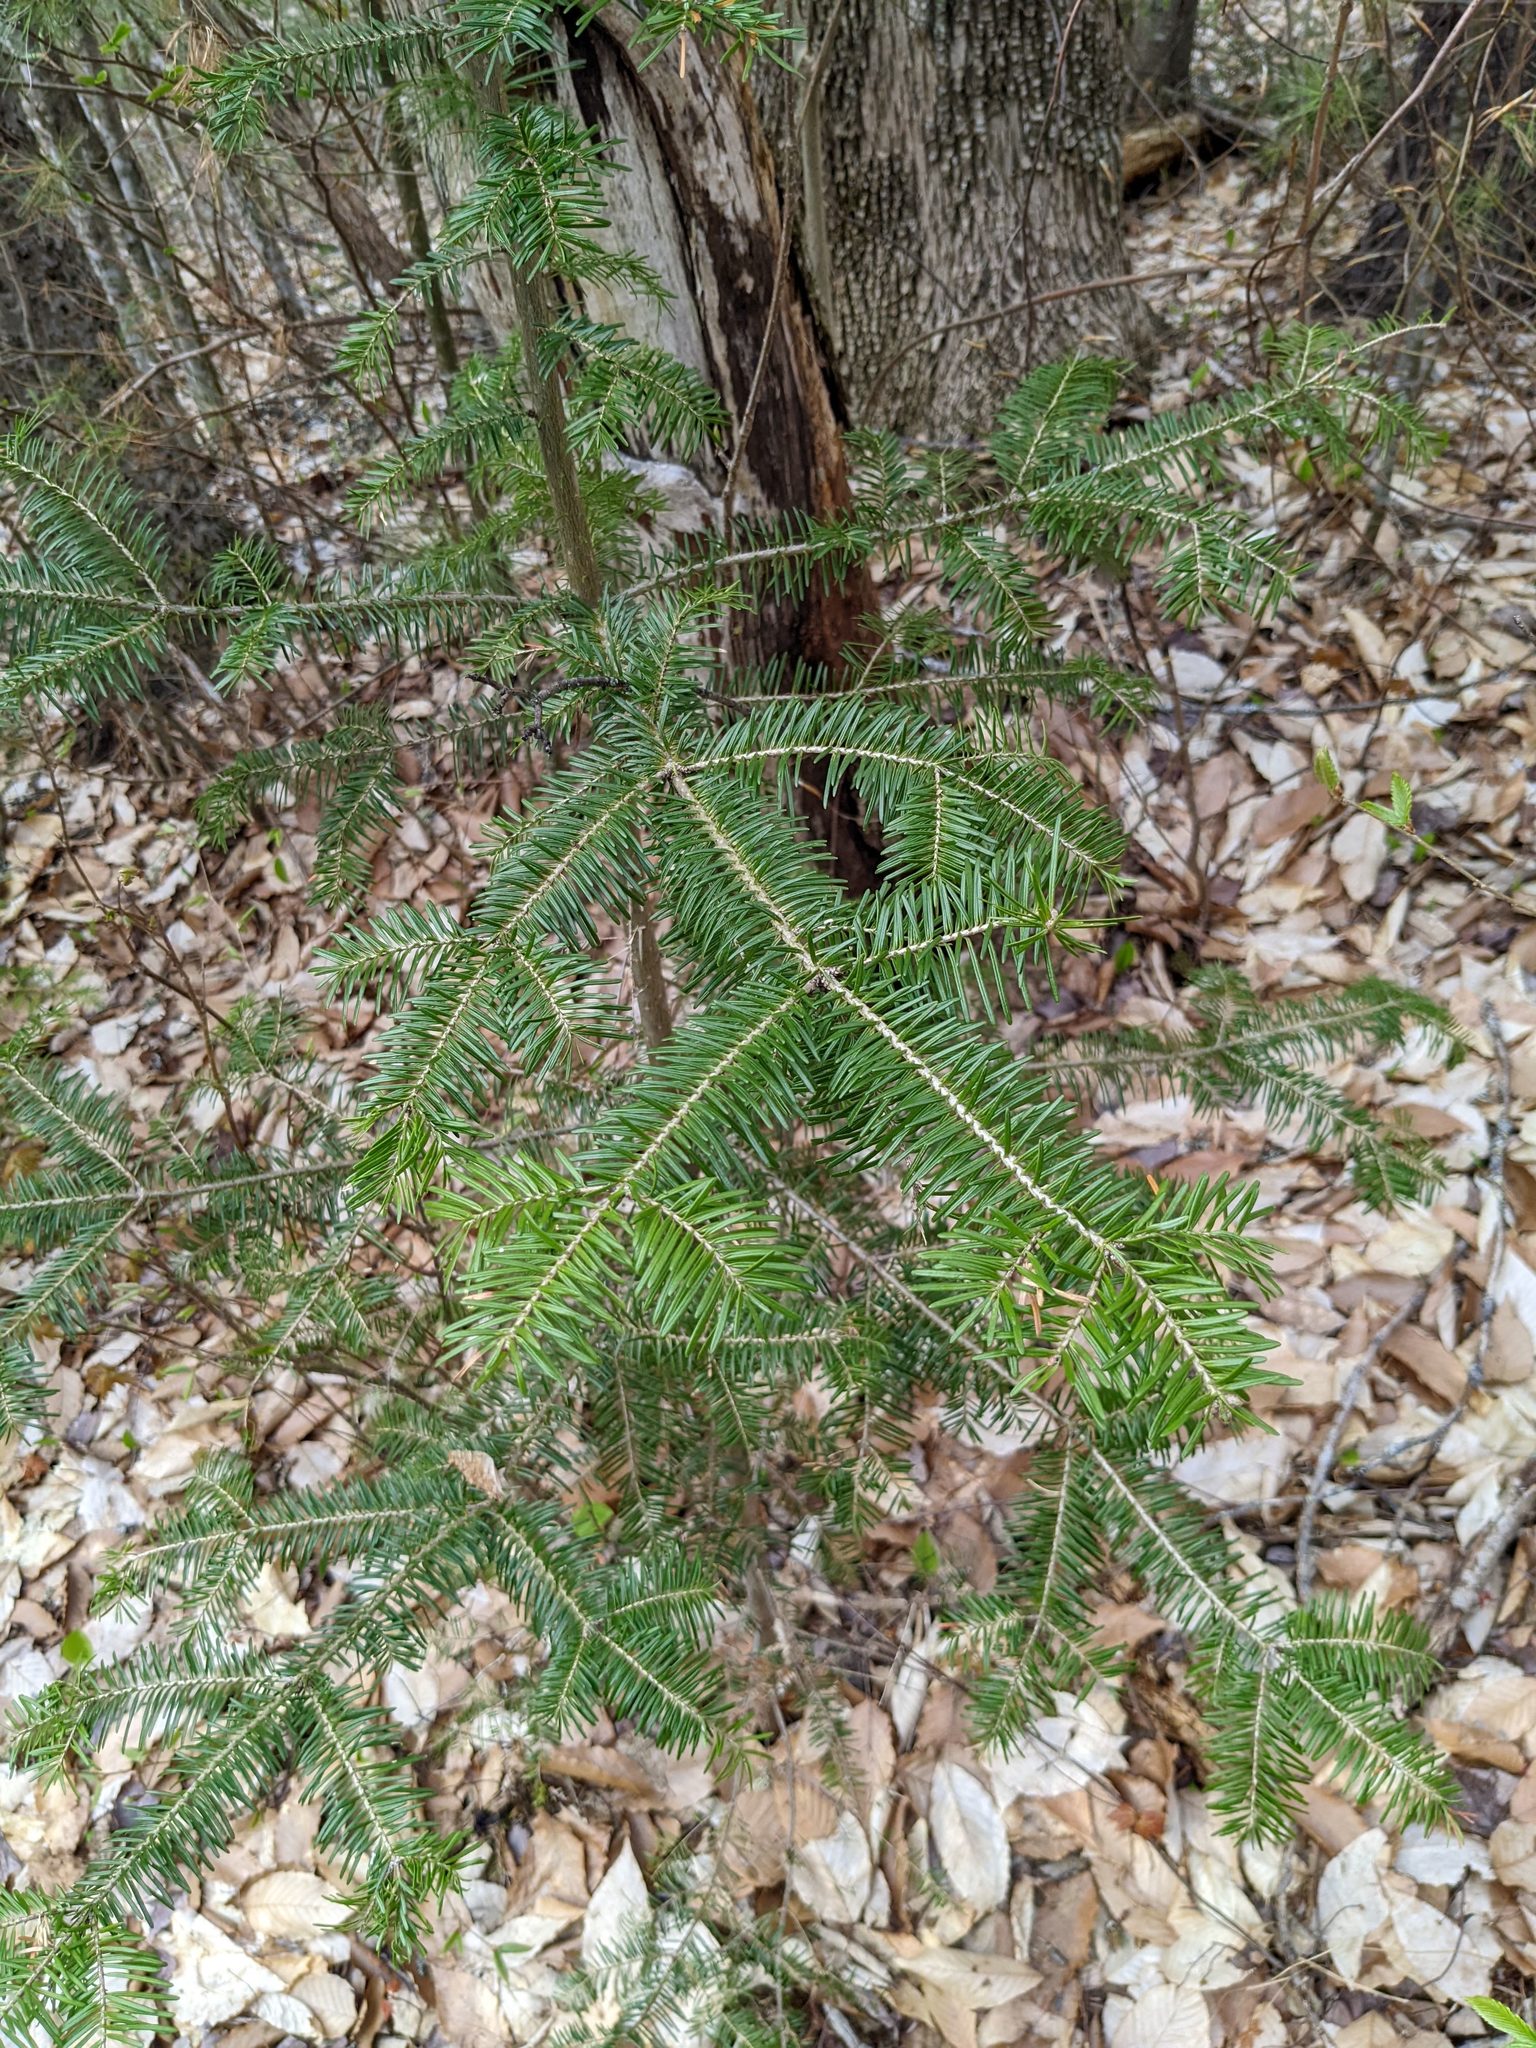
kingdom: Plantae
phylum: Tracheophyta
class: Pinopsida
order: Pinales
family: Pinaceae
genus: Abies
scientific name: Abies balsamea
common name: Balsam fir
